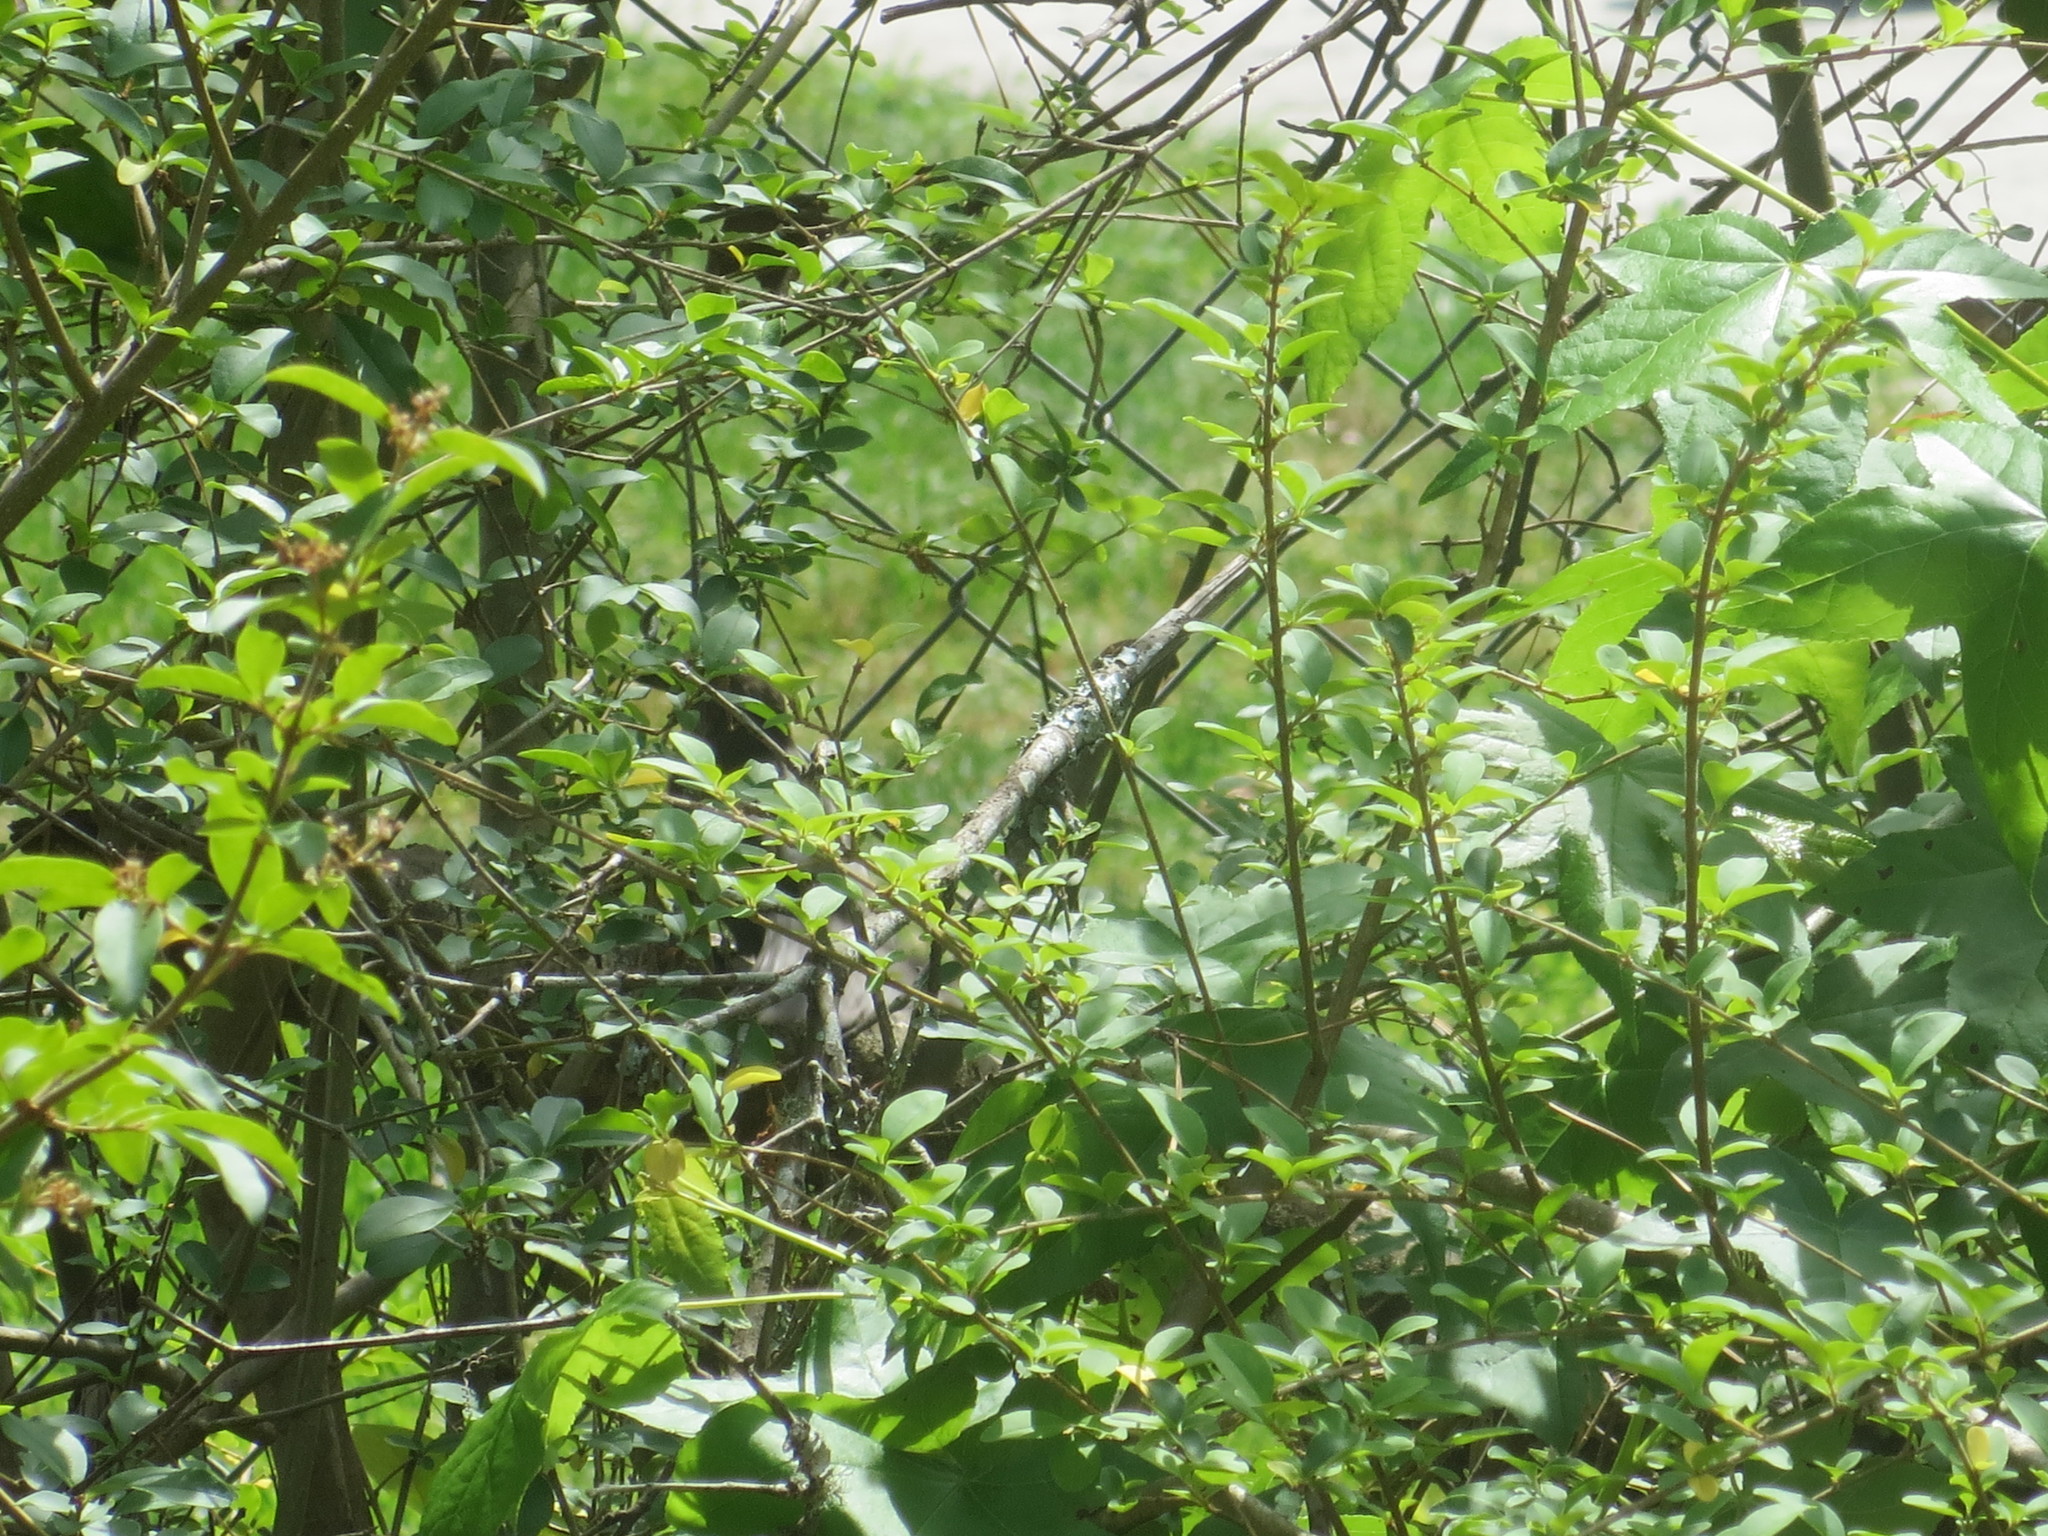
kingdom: Plantae
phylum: Tracheophyta
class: Magnoliopsida
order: Saxifragales
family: Altingiaceae
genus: Liquidambar
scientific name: Liquidambar styraciflua
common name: Sweet gum
